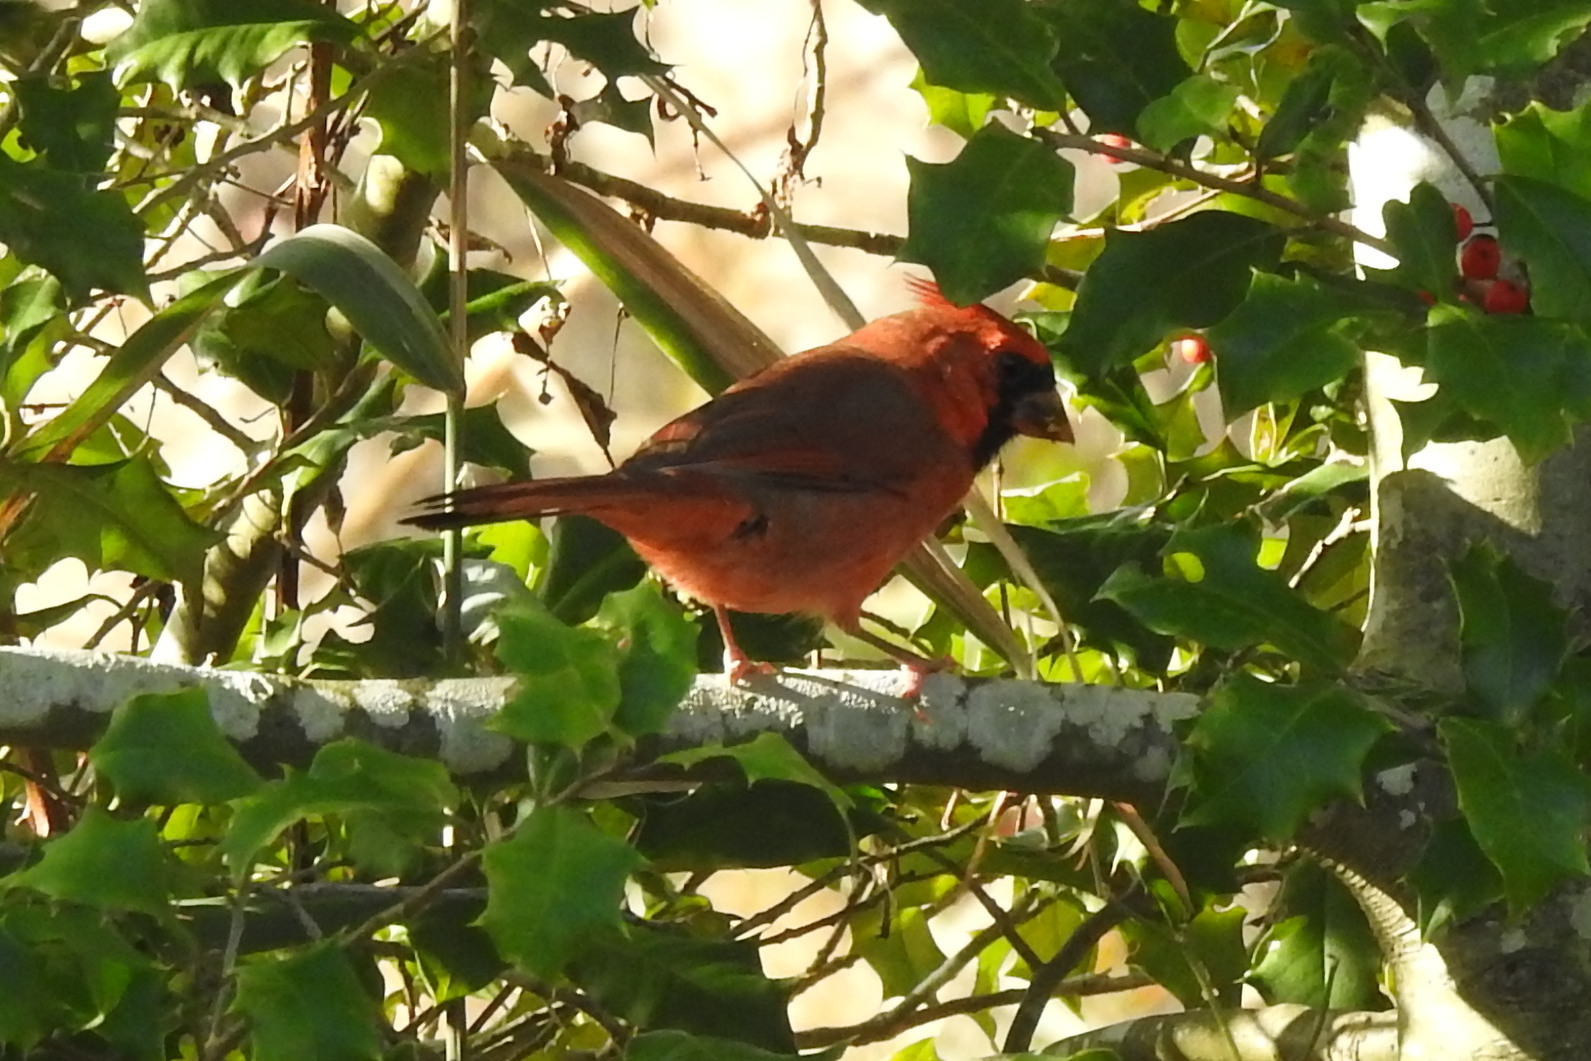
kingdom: Animalia
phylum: Chordata
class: Aves
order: Passeriformes
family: Cardinalidae
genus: Cardinalis
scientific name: Cardinalis cardinalis
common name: Northern cardinal
